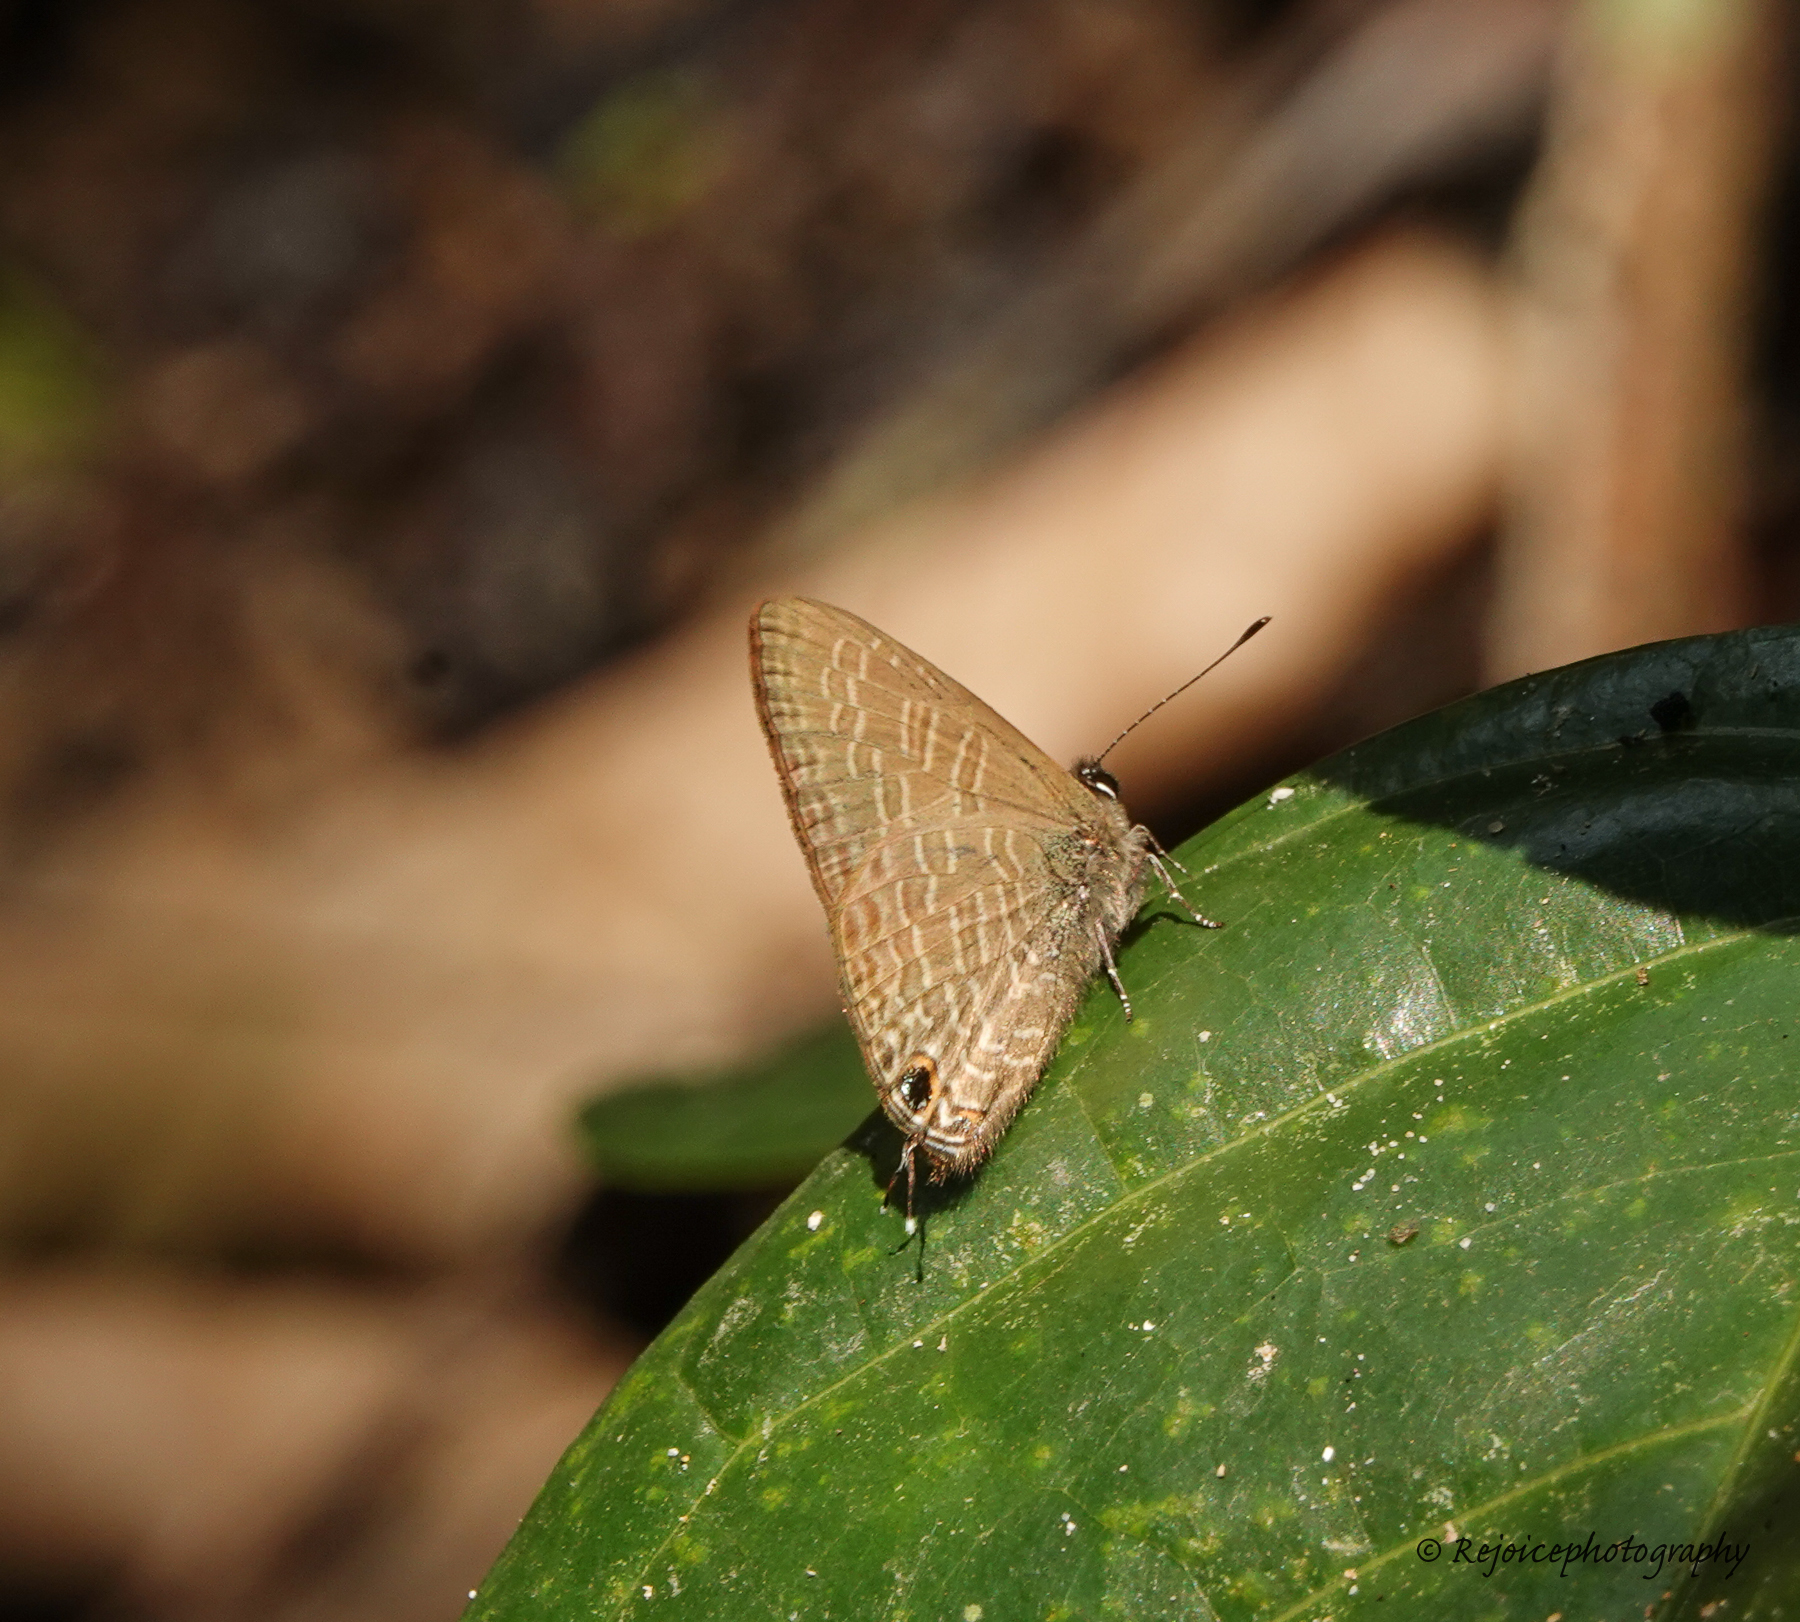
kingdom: Animalia
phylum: Arthropoda
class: Insecta
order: Lepidoptera
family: Lycaenidae
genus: Ionolyce
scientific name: Ionolyce helicon
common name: Pointed line blue
